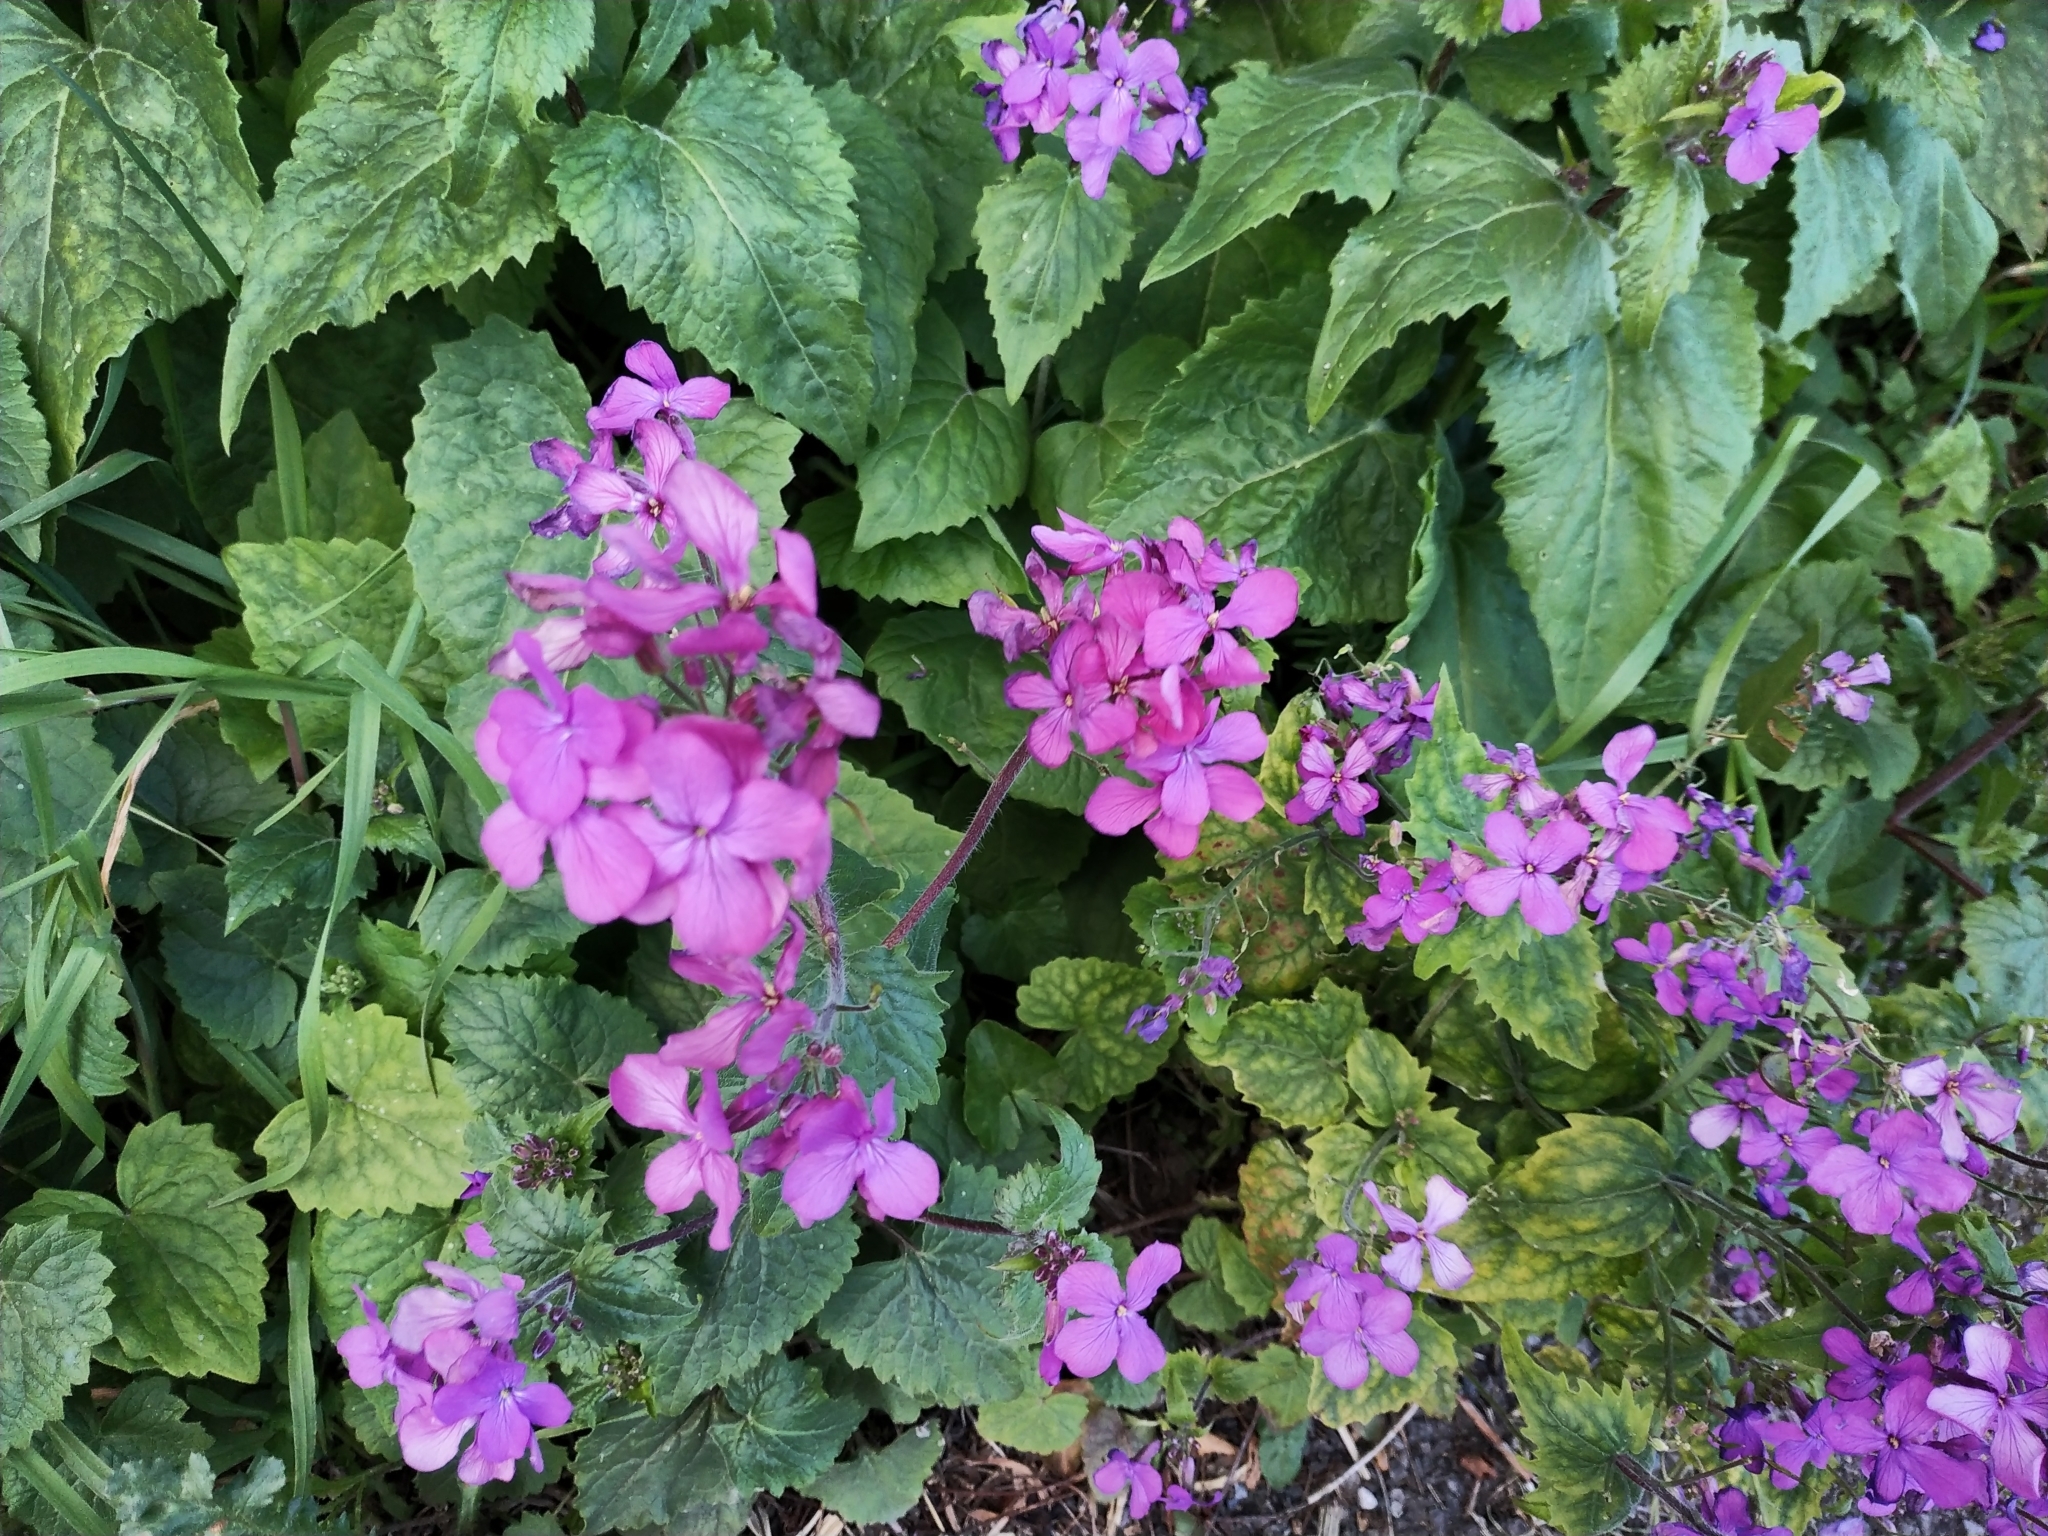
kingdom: Plantae
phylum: Tracheophyta
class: Magnoliopsida
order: Brassicales
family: Brassicaceae
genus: Lunaria
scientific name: Lunaria annua
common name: Honesty
